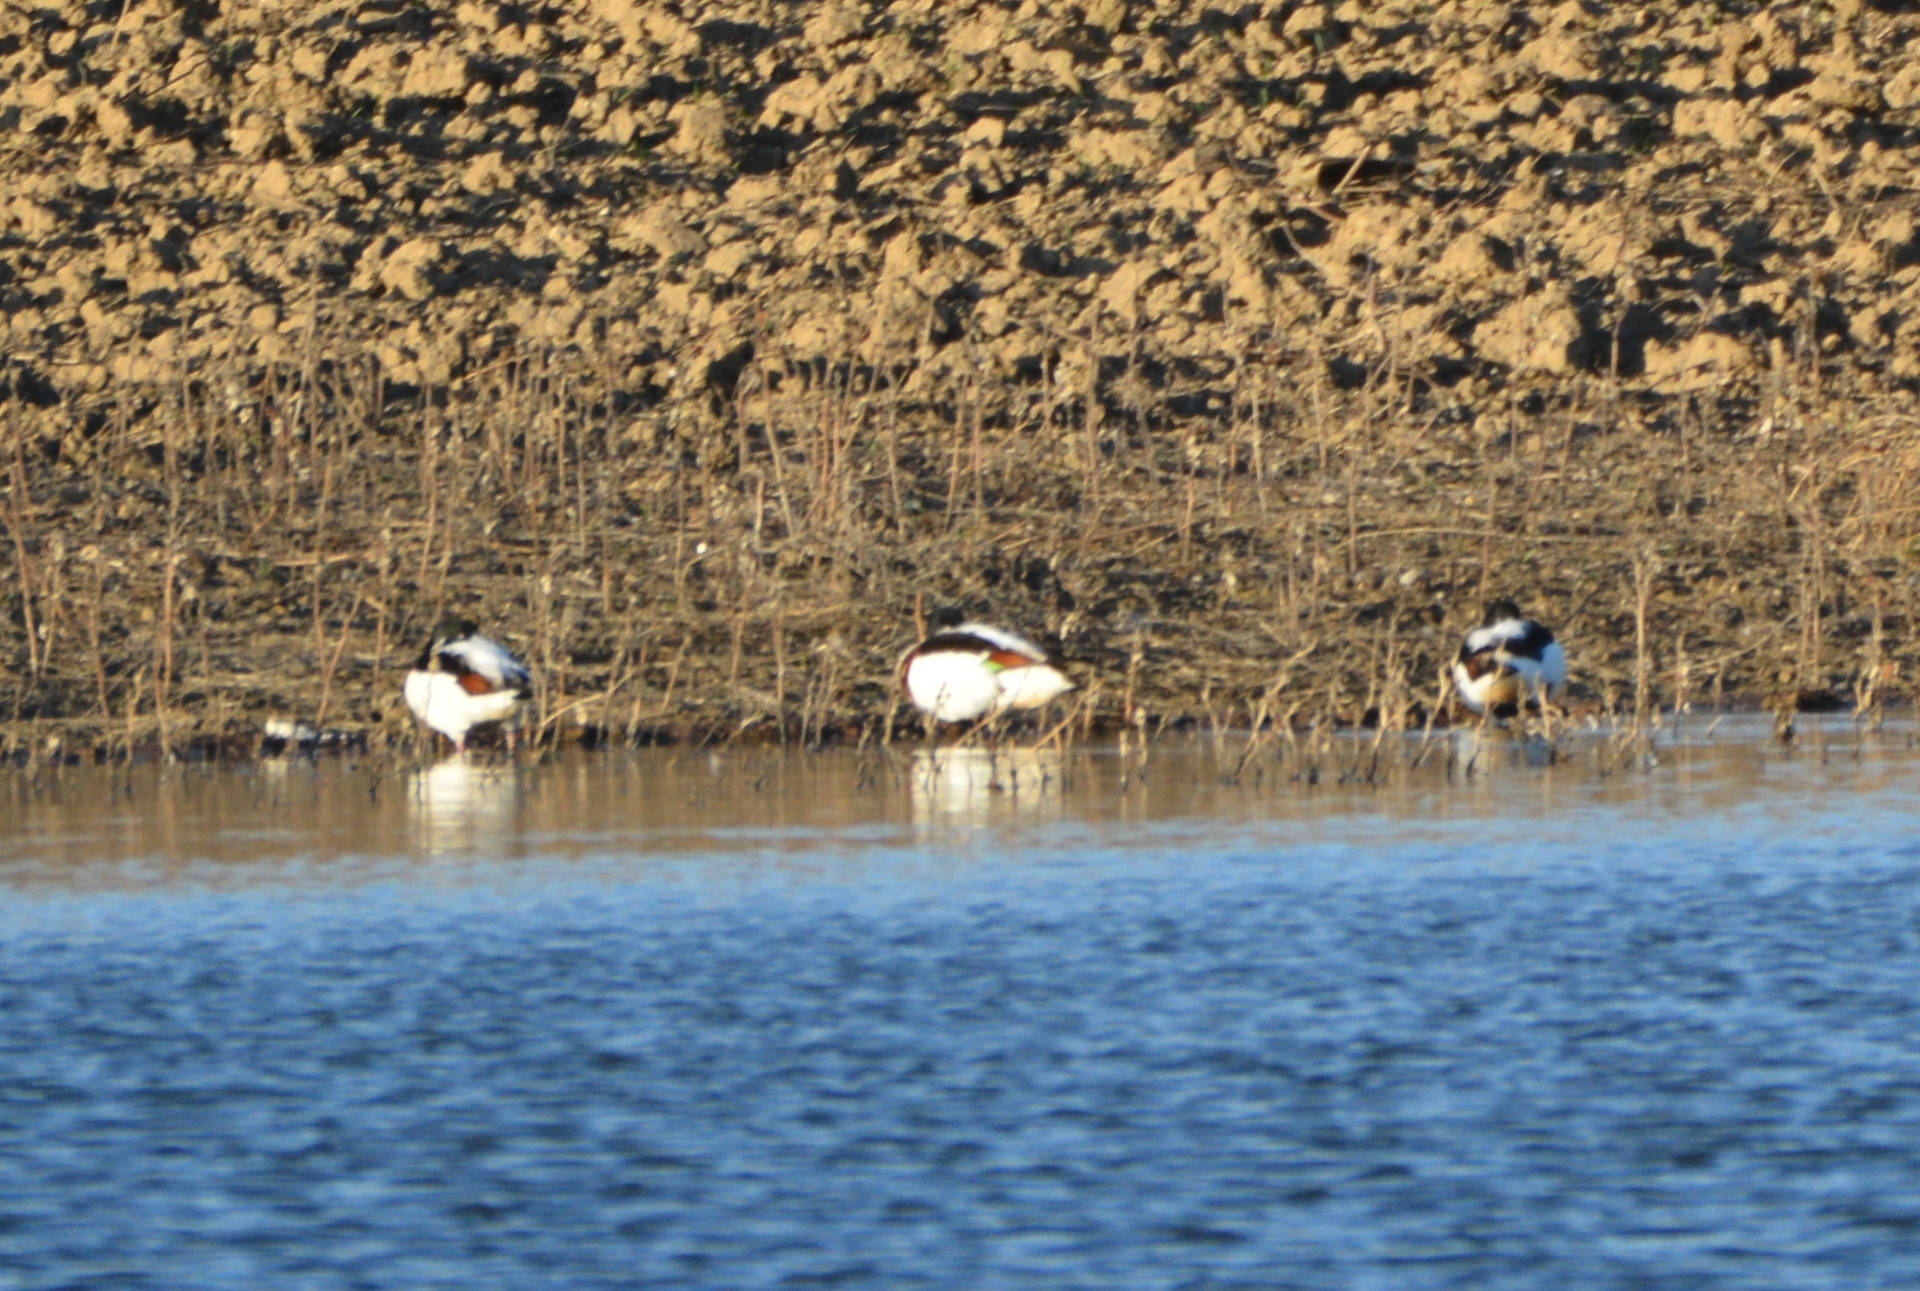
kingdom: Animalia
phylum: Chordata
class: Aves
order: Anseriformes
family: Anatidae
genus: Tadorna
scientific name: Tadorna tadorna
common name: Common shelduck
